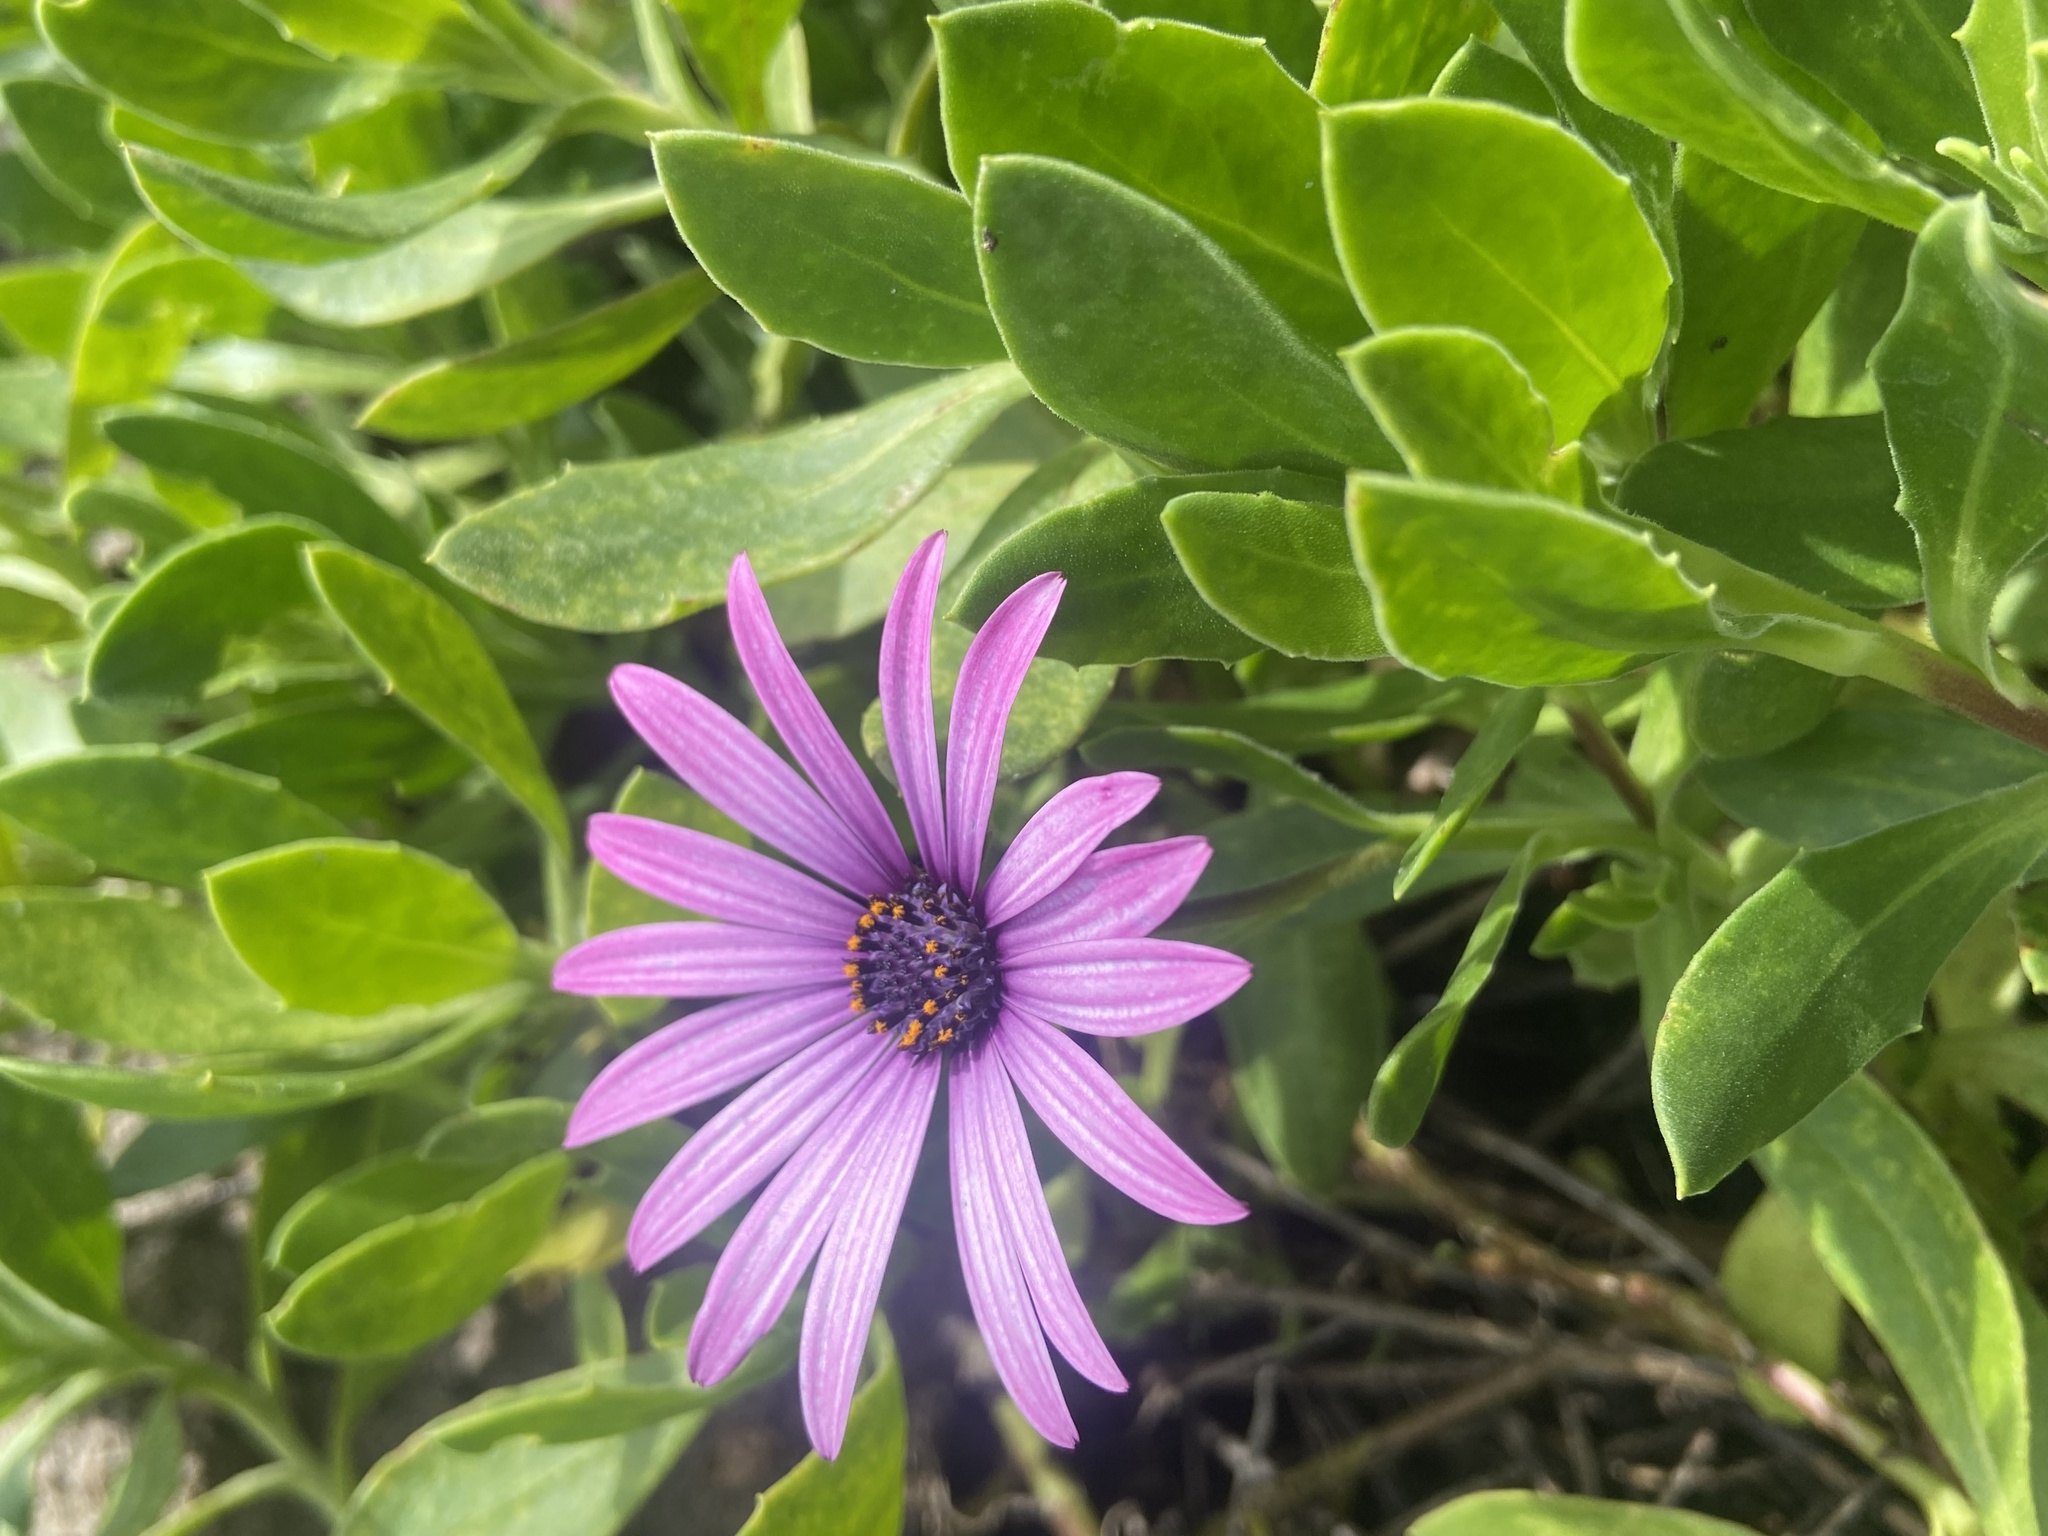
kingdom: Plantae
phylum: Tracheophyta
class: Magnoliopsida
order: Asterales
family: Asteraceae
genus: Dimorphotheca
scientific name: Dimorphotheca fruticosa
